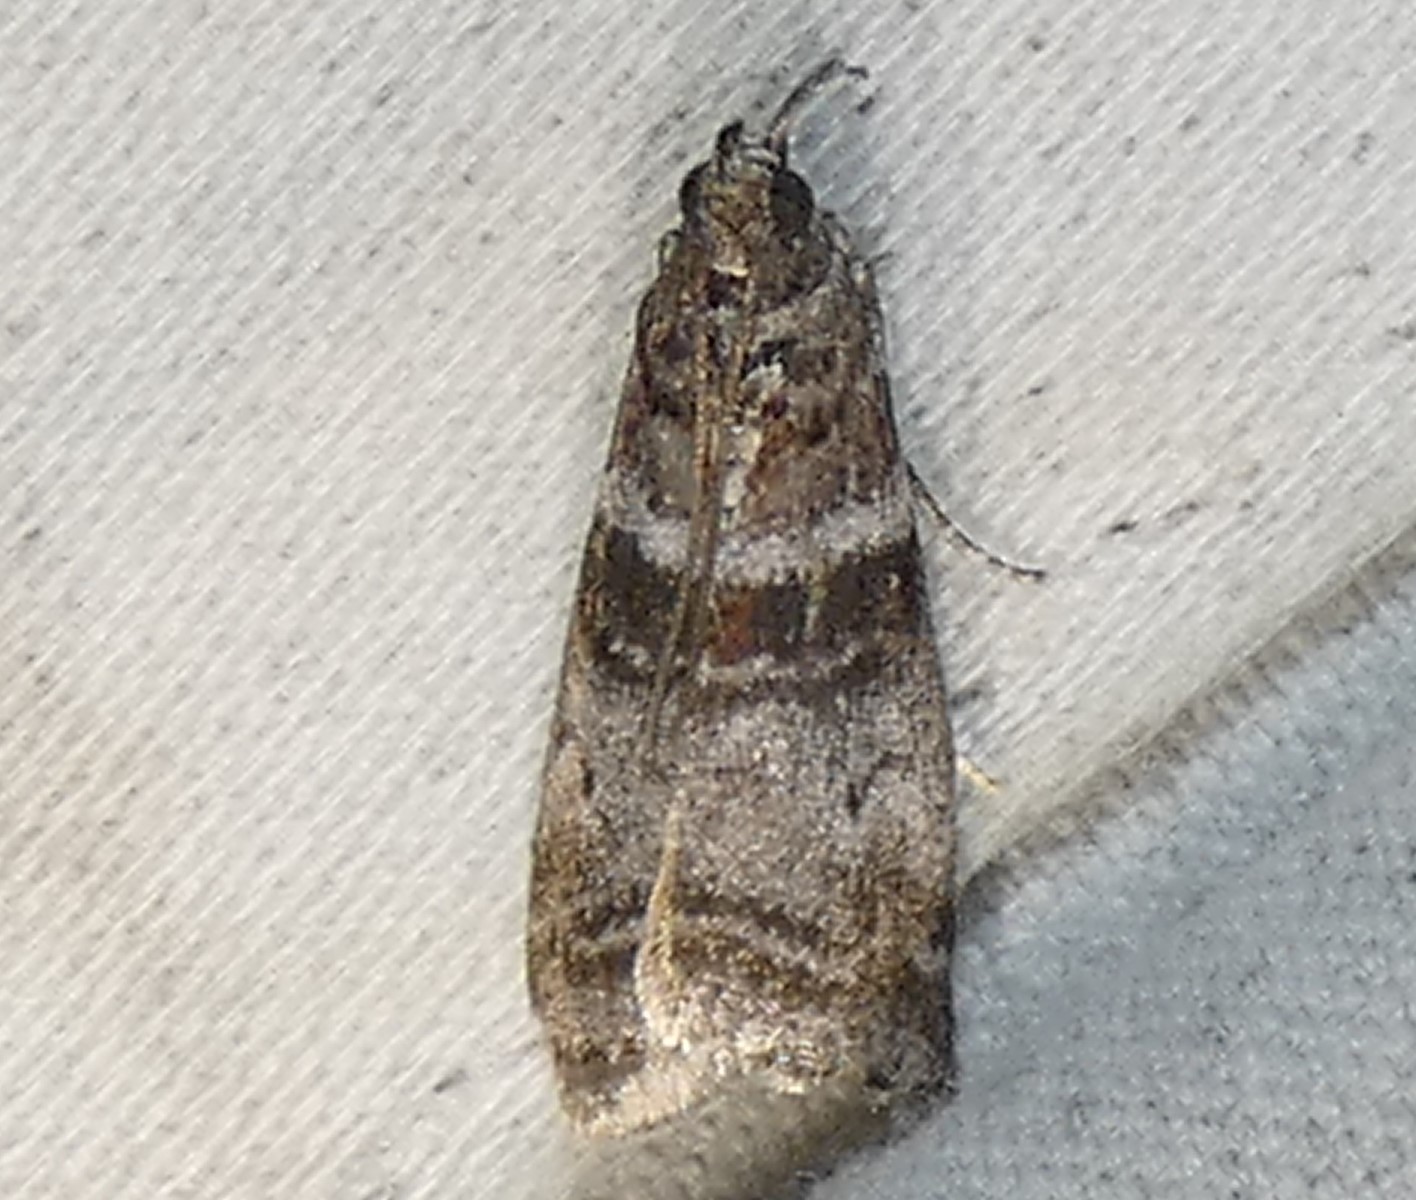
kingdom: Animalia
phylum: Arthropoda
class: Insecta
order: Lepidoptera
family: Pyralidae
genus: Sciota
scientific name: Sciota uvinella
